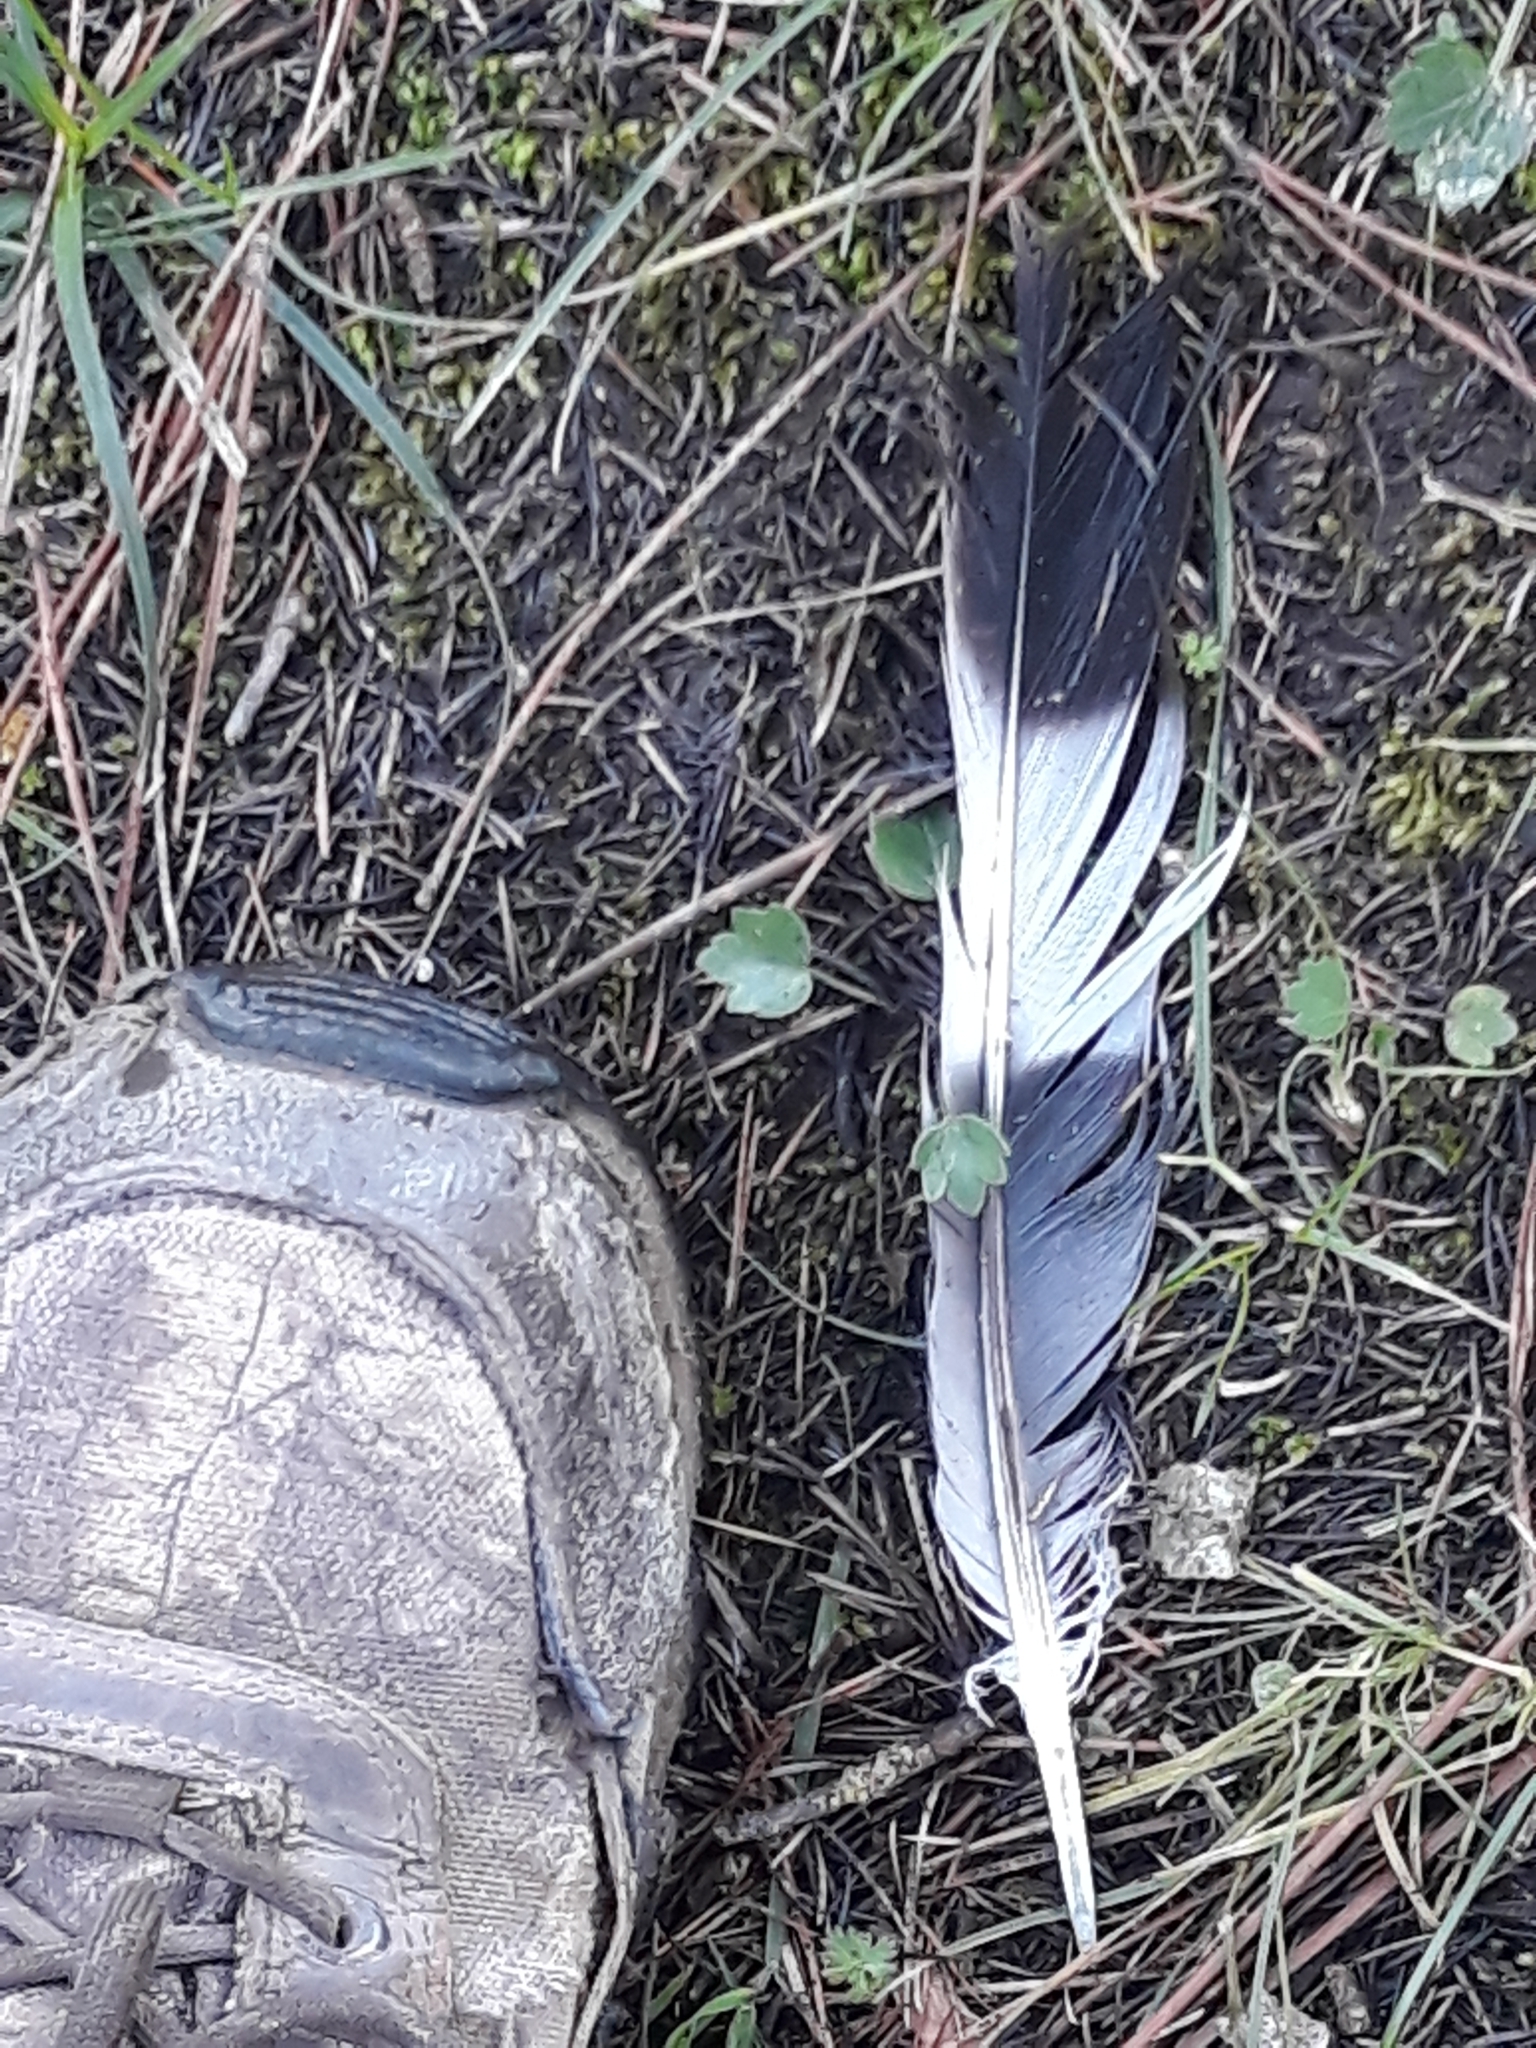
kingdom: Animalia
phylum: Chordata
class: Aves
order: Columbiformes
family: Columbidae
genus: Columba
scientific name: Columba palumbus
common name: Common wood pigeon
